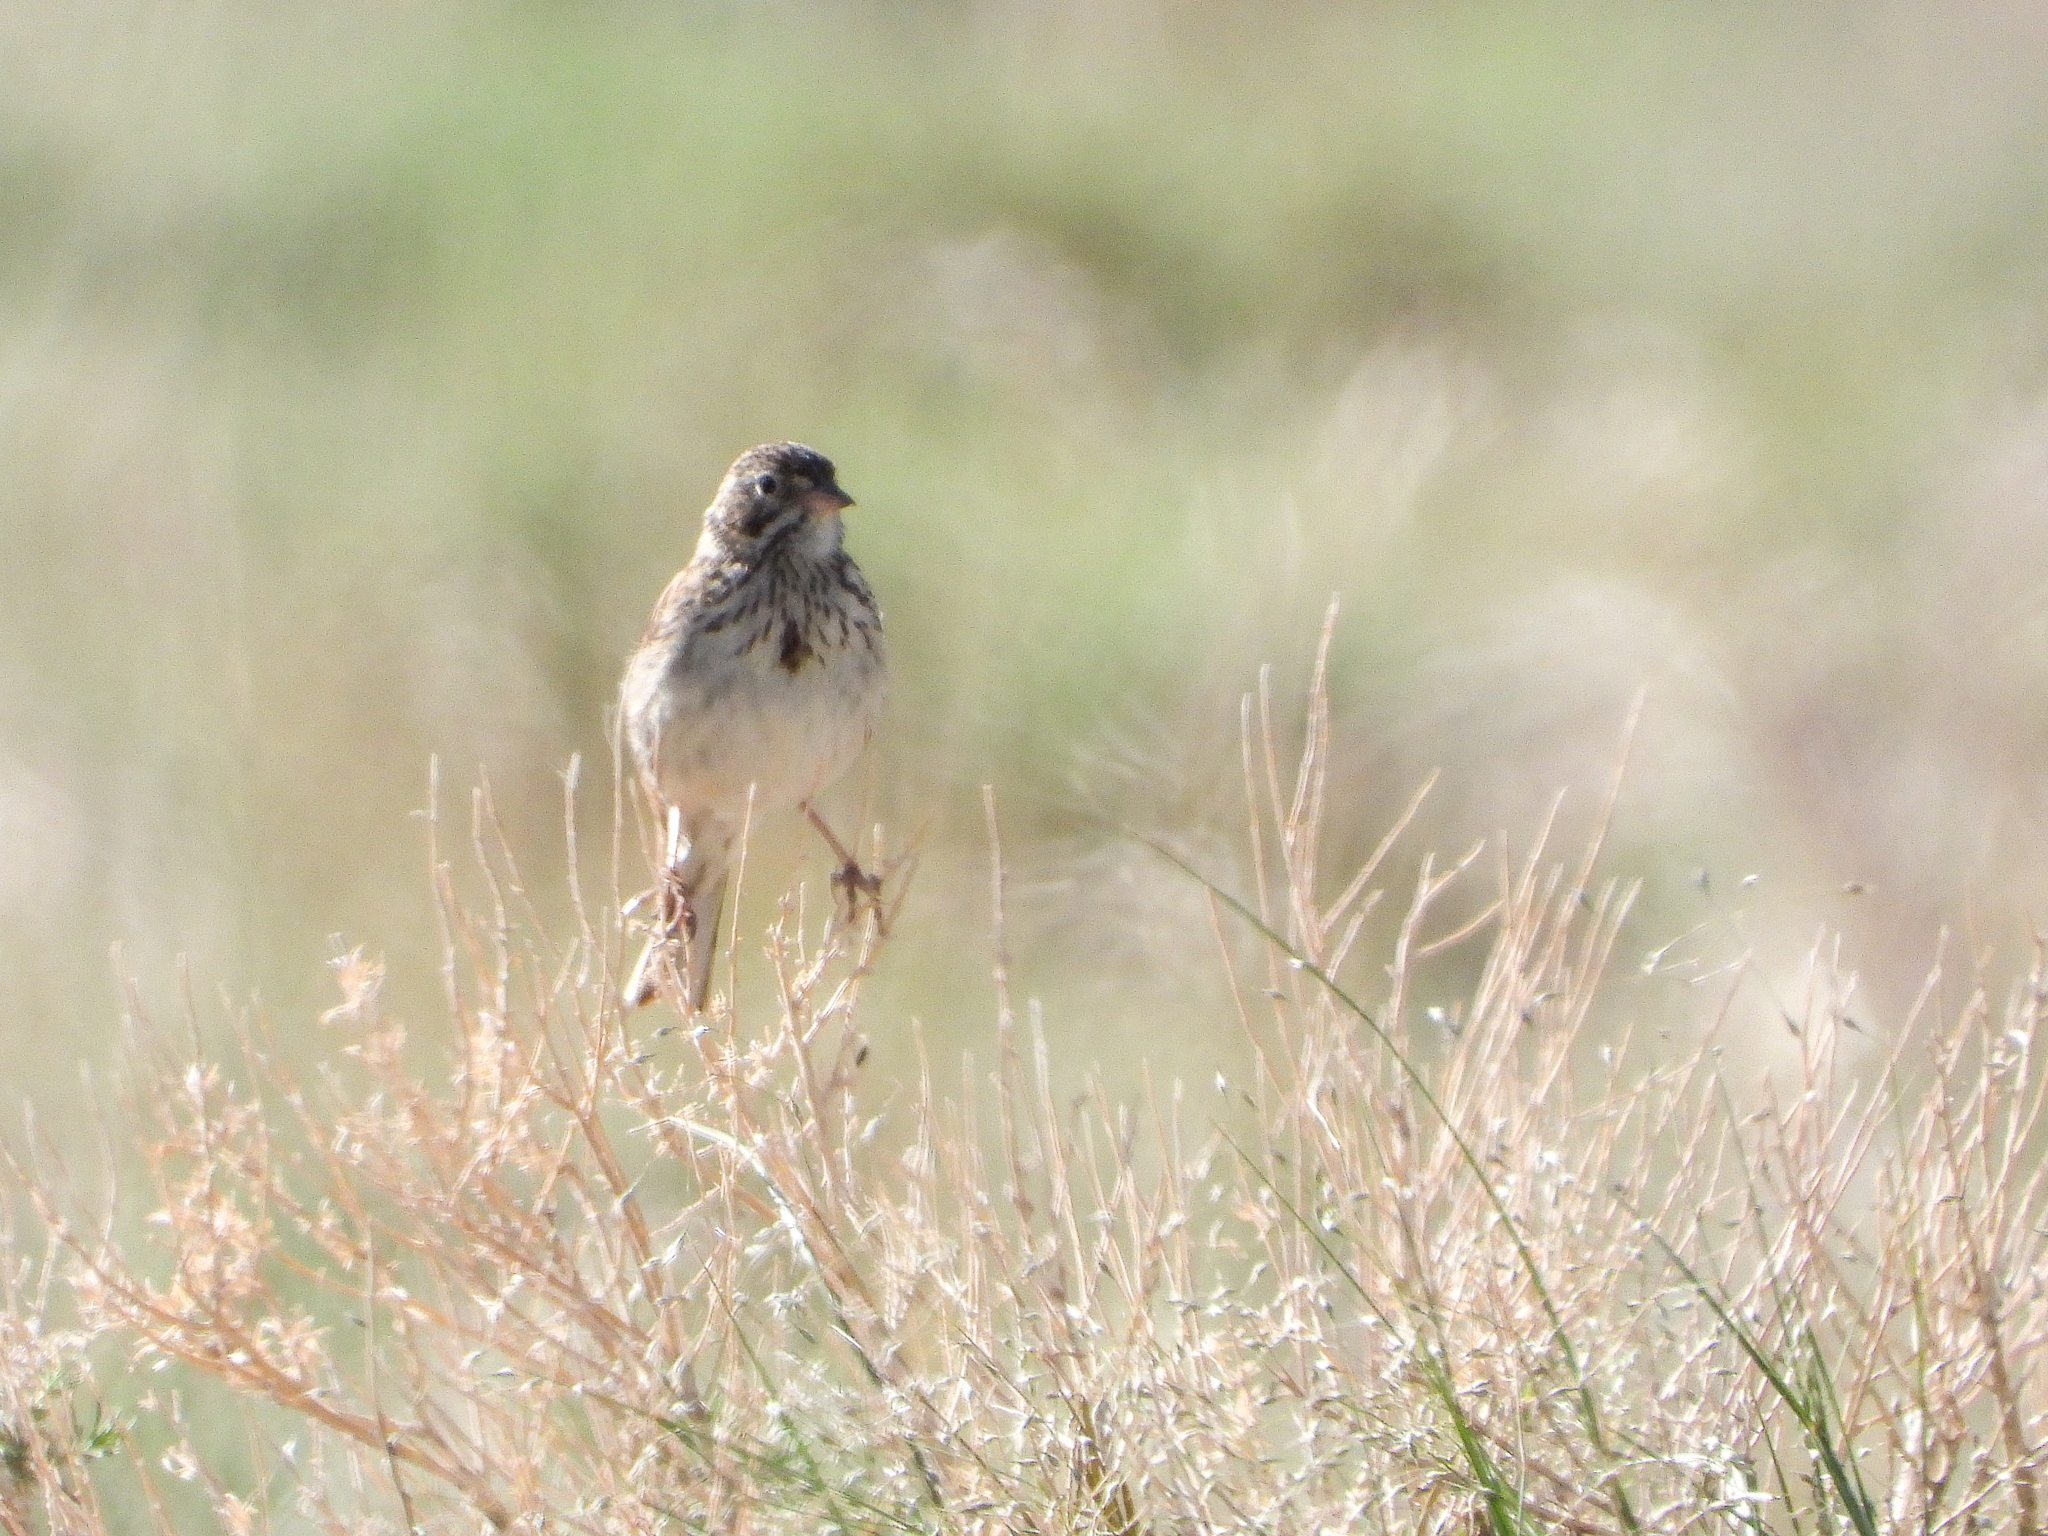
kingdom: Animalia
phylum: Chordata
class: Aves
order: Passeriformes
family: Passerellidae
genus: Pooecetes
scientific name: Pooecetes gramineus
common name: Vesper sparrow
